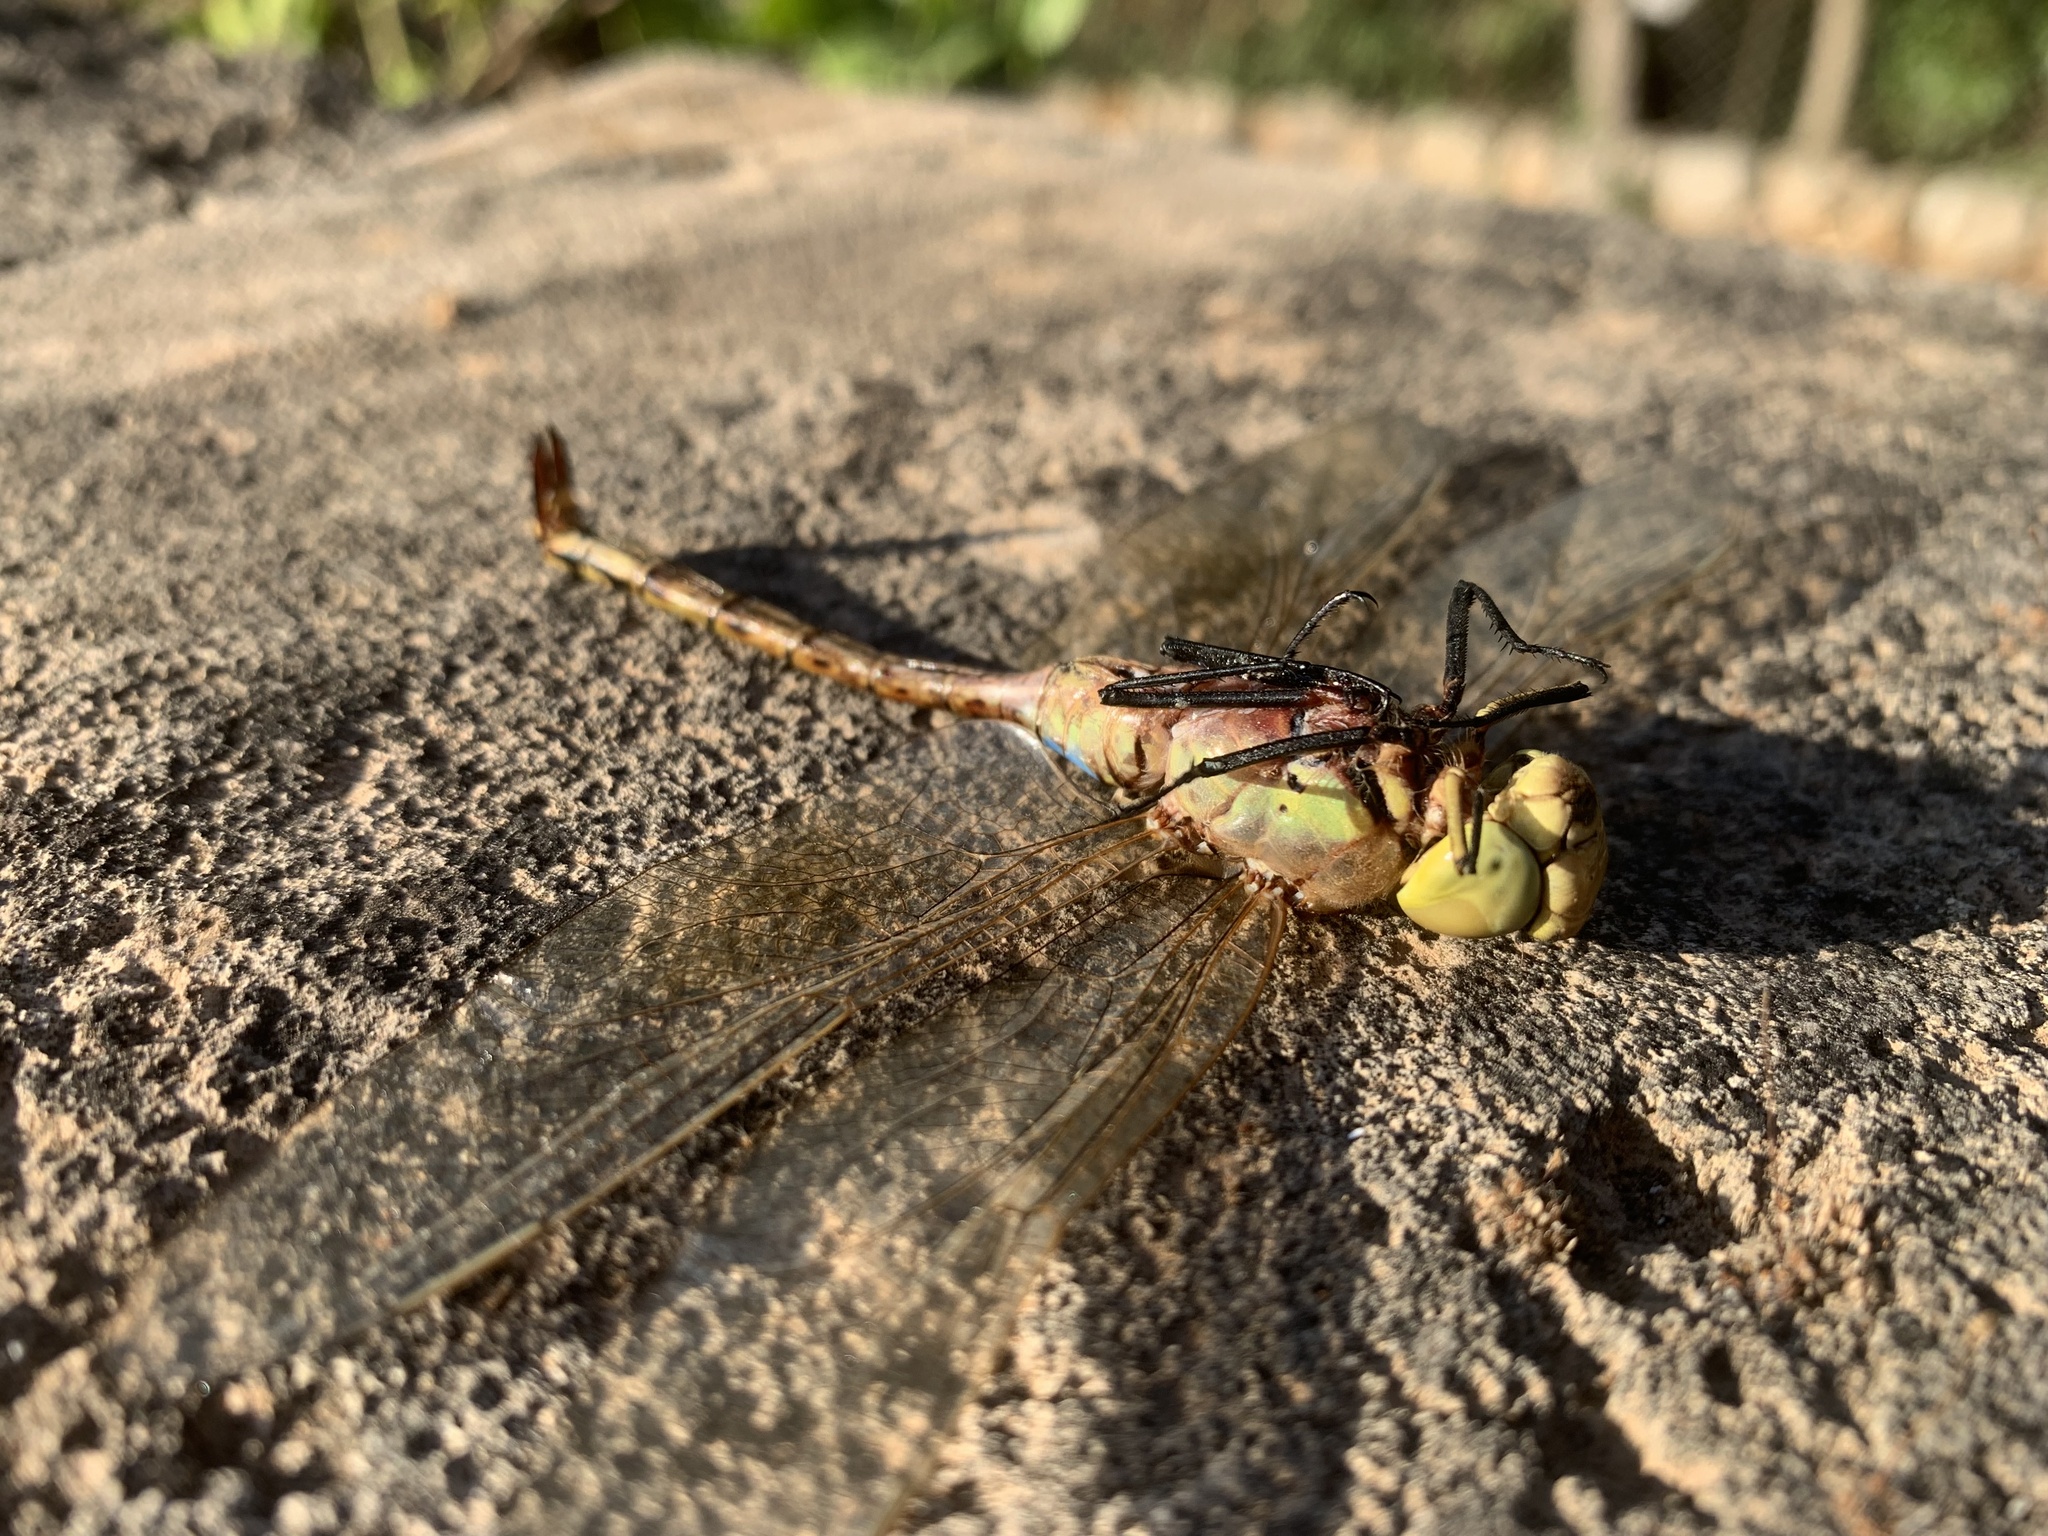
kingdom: Animalia
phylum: Arthropoda
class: Insecta
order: Odonata
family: Aeshnidae
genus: Anax
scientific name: Anax ephippiger
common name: Vagrant emperor
